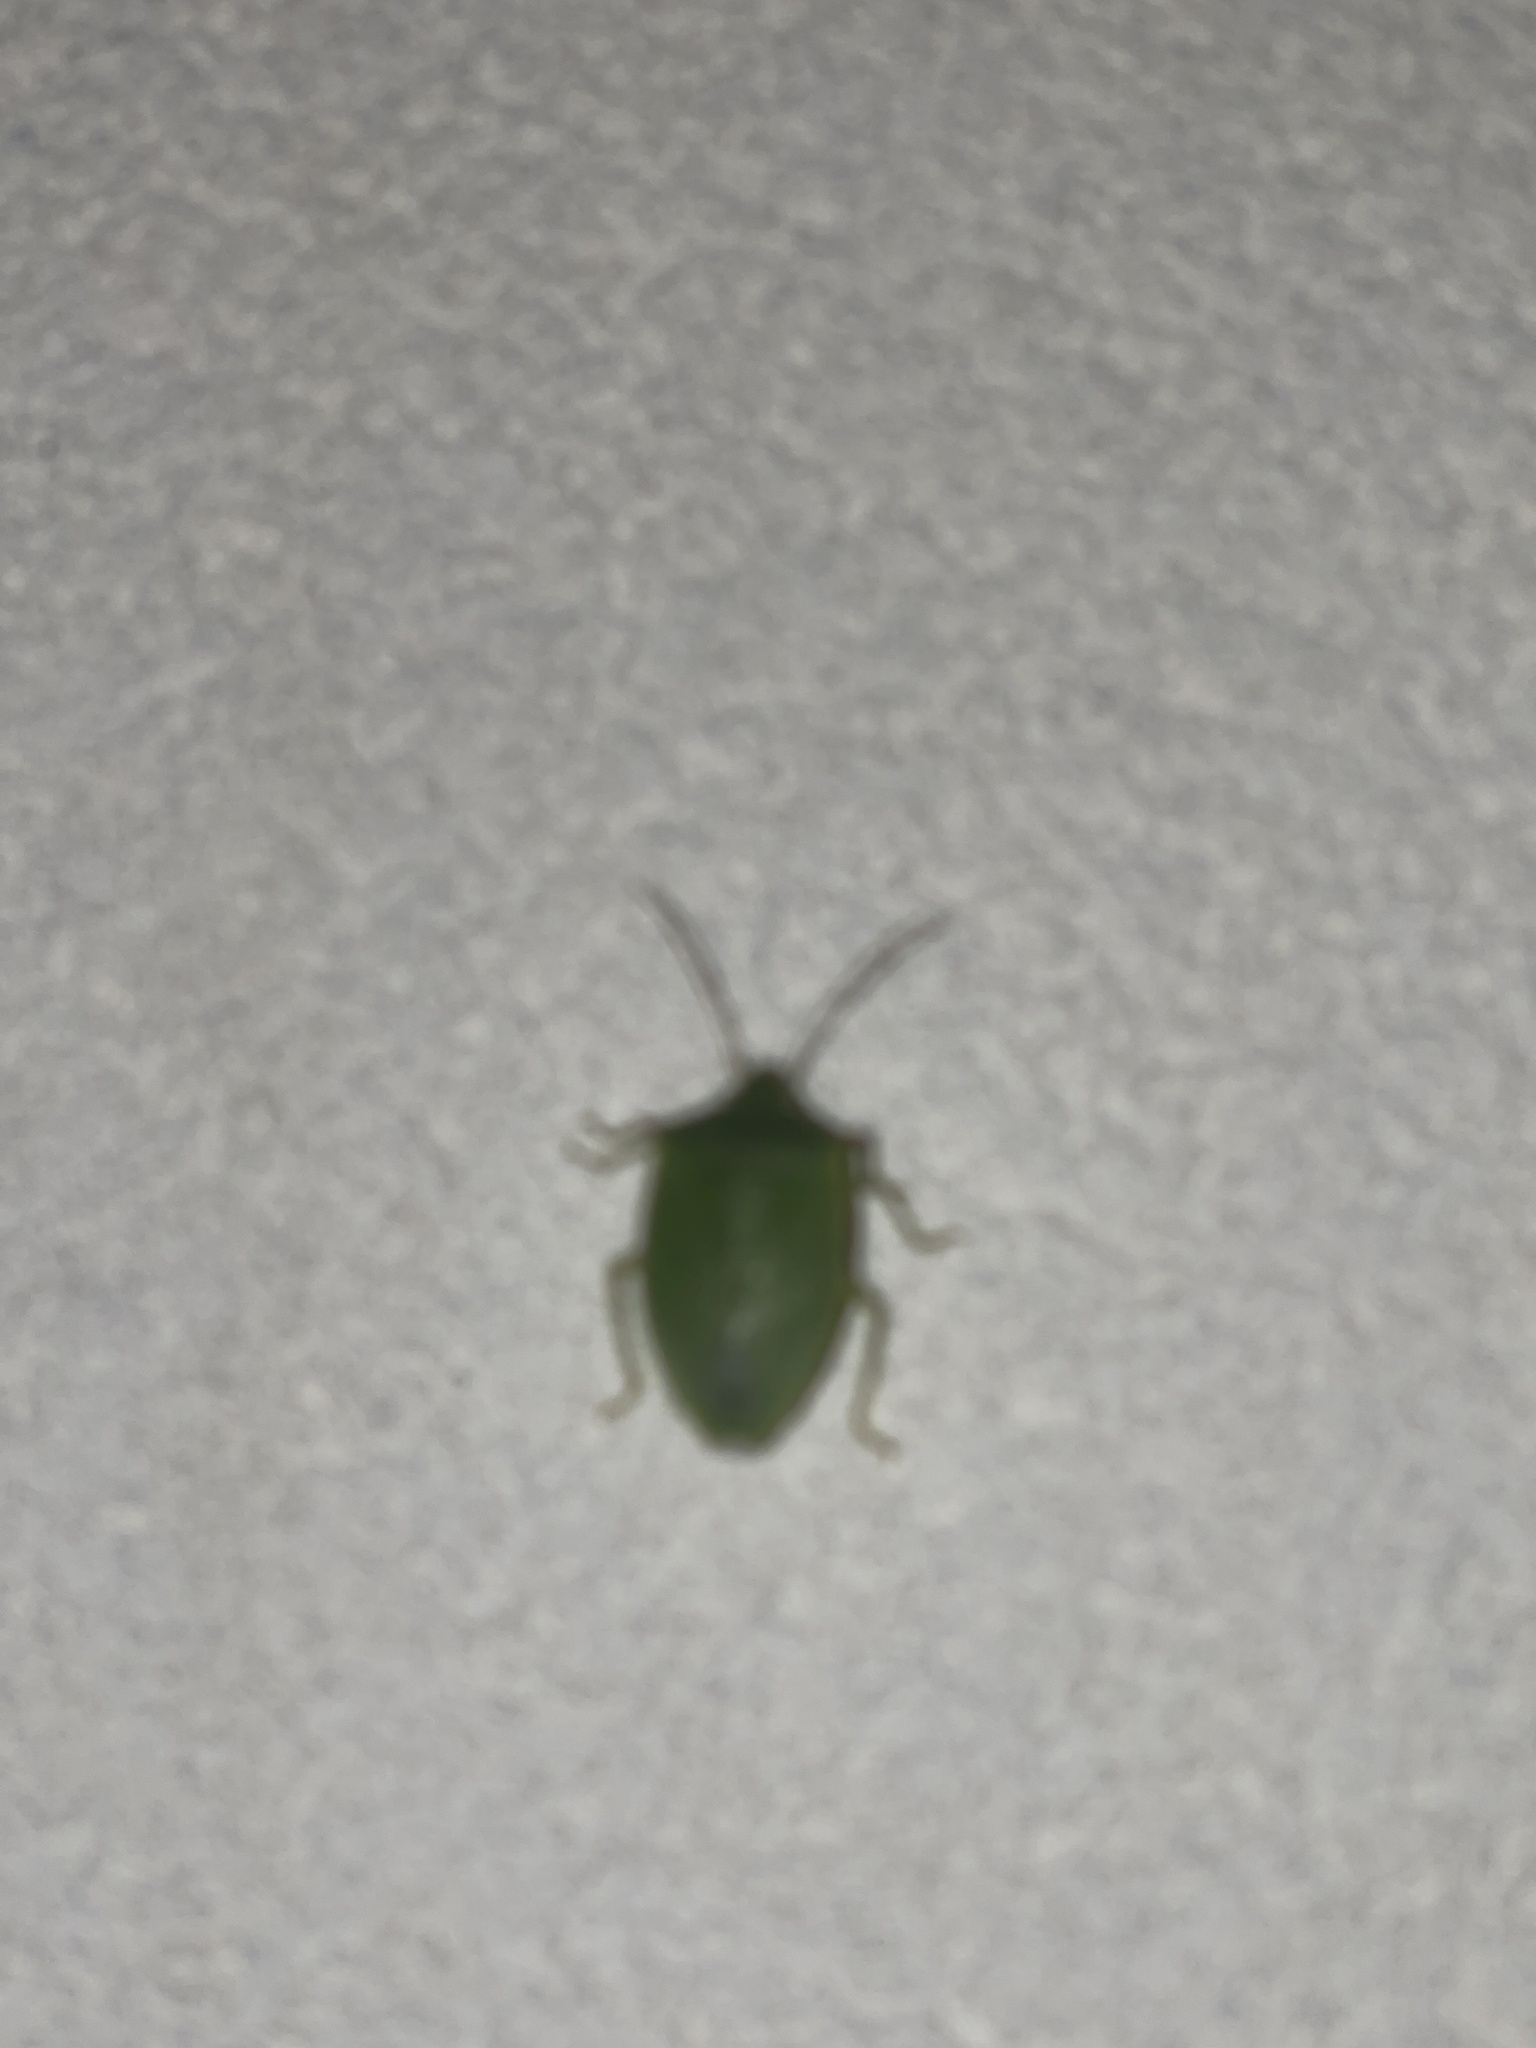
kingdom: Animalia
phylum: Arthropoda
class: Insecta
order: Hemiptera
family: Pentatomidae
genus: Loxa
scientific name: Loxa flavicollis
